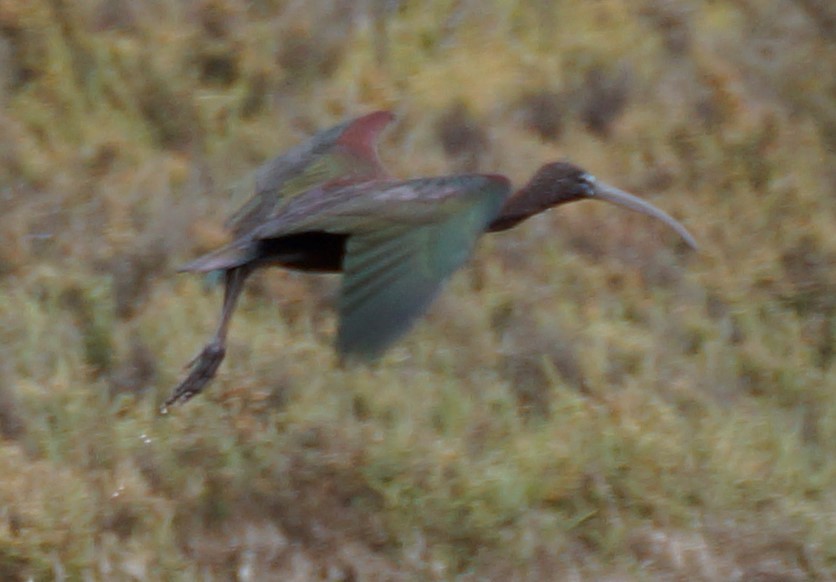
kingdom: Animalia
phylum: Chordata
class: Aves
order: Pelecaniformes
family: Threskiornithidae
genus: Plegadis
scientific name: Plegadis falcinellus
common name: Glossy ibis
